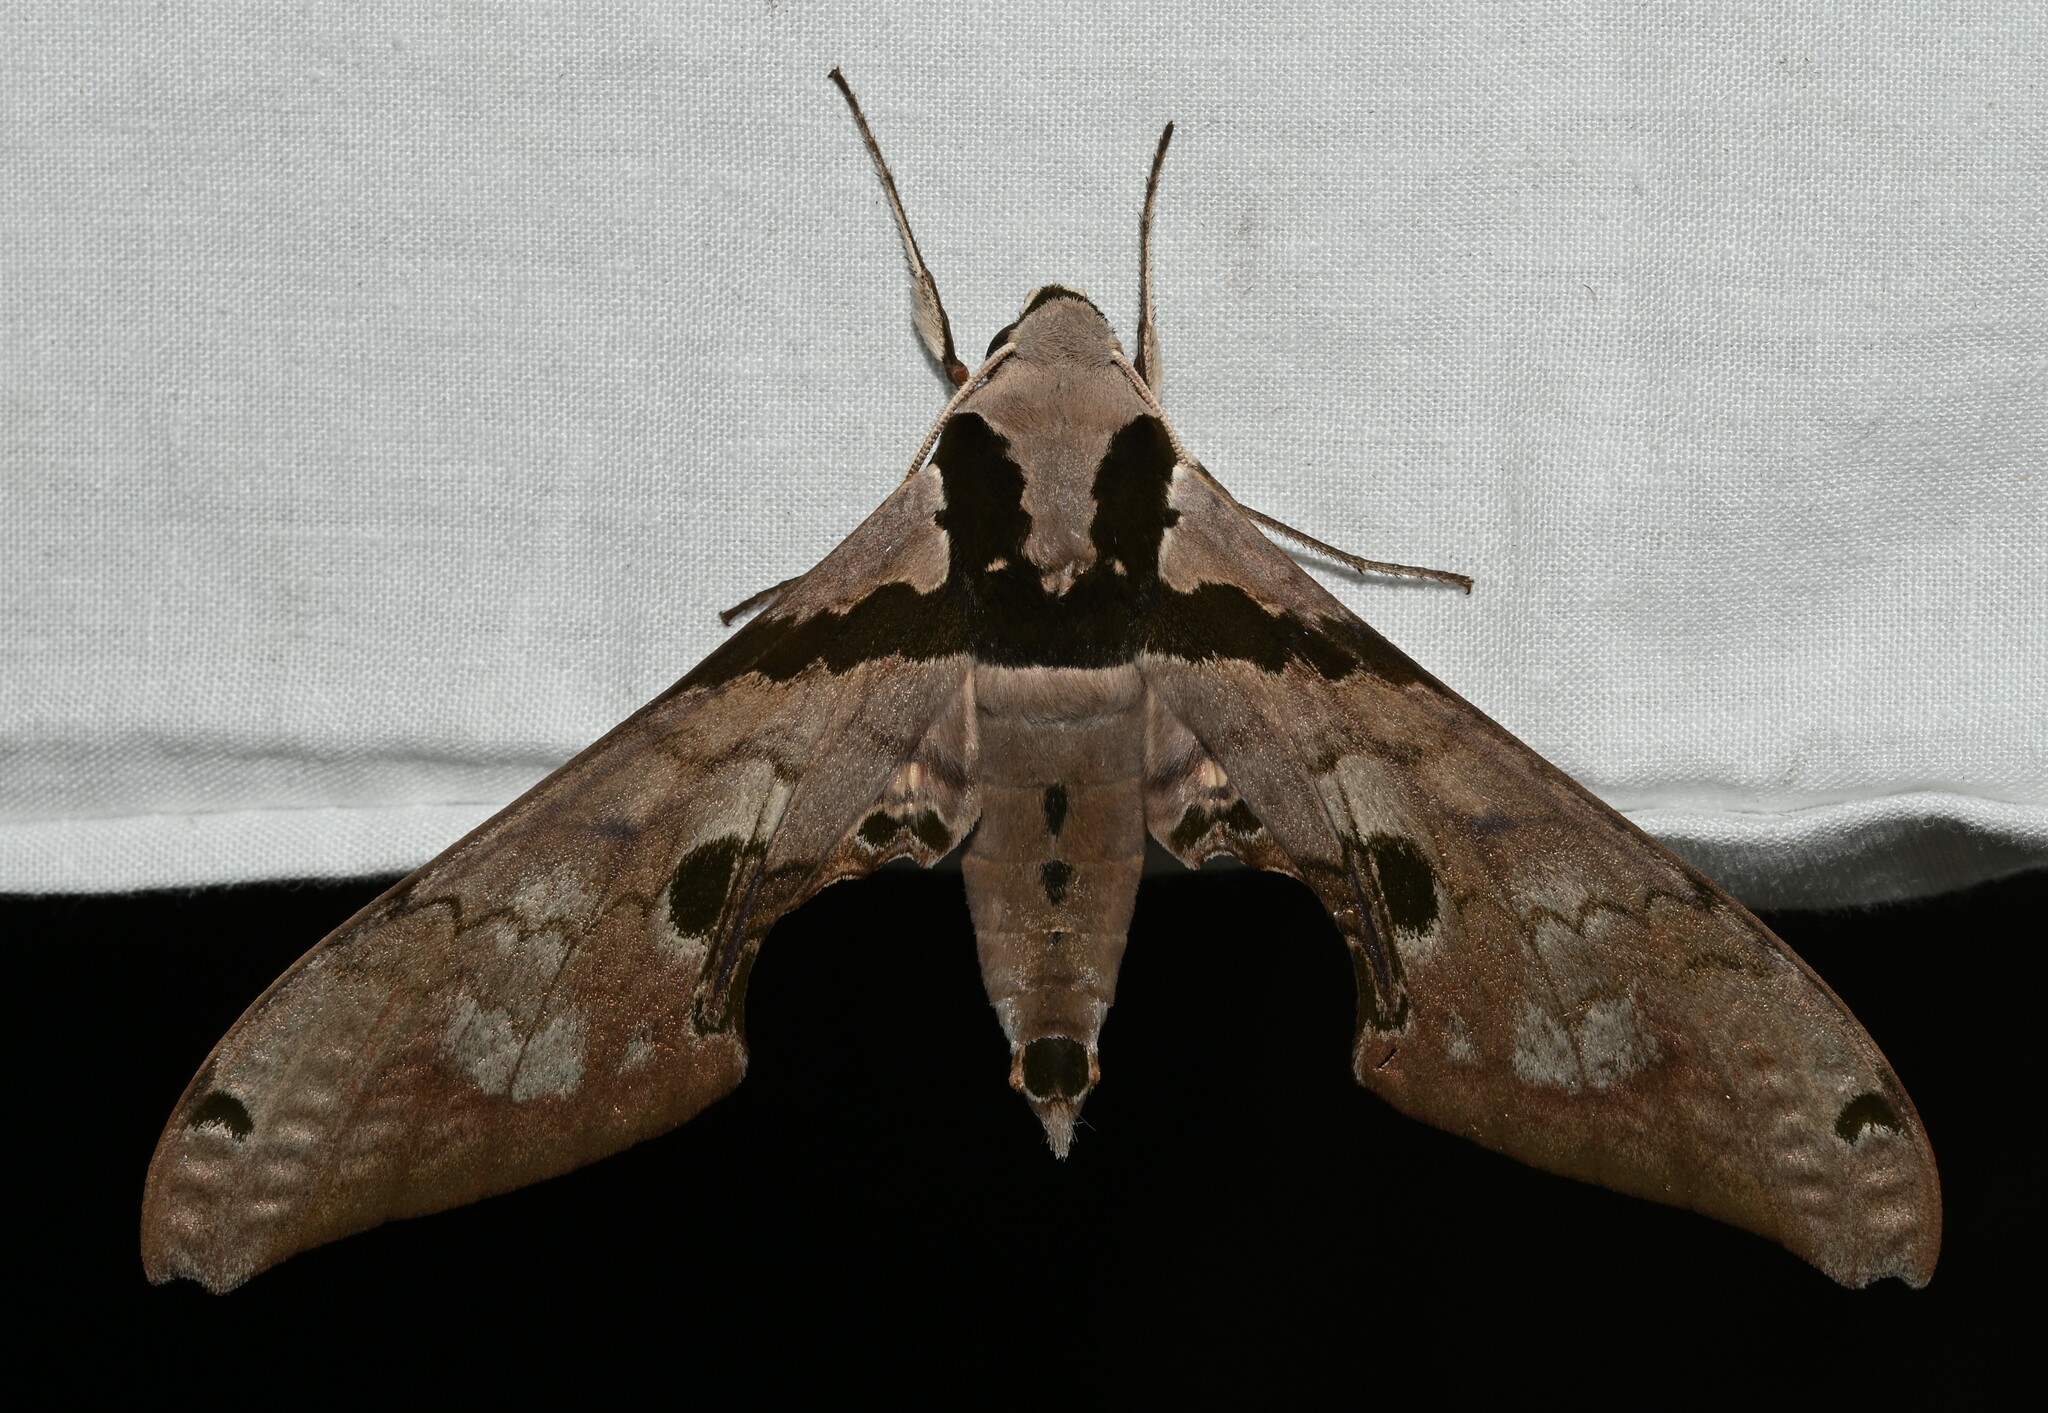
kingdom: Animalia
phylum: Arthropoda
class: Insecta
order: Lepidoptera
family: Sphingidae
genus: Adhemarius
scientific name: Adhemarius gannascus
